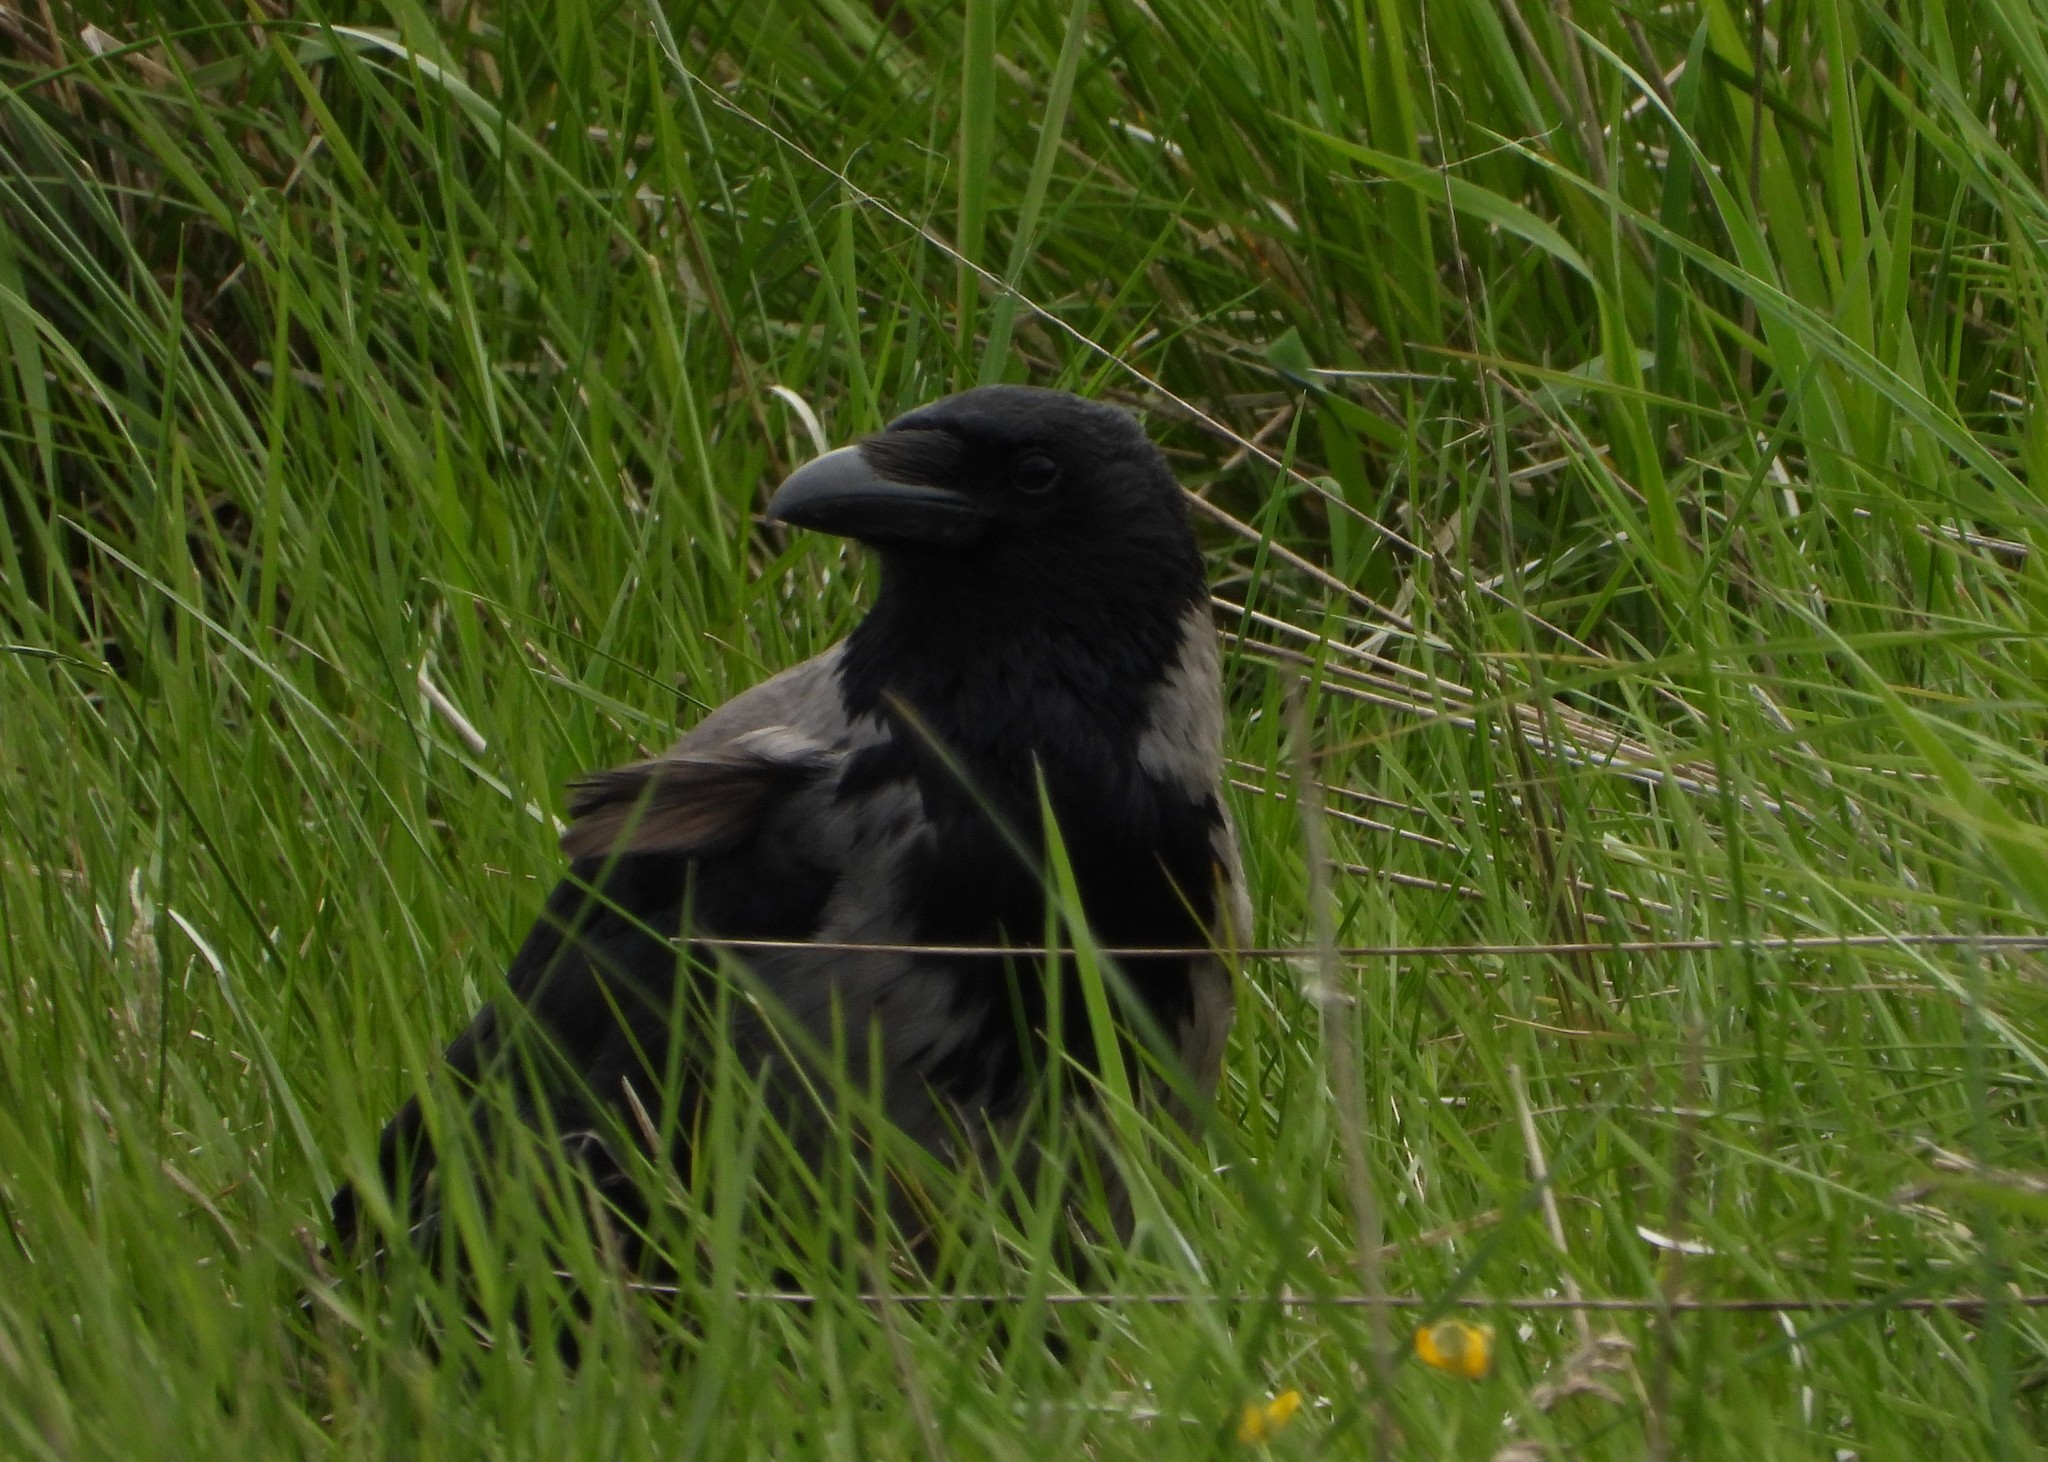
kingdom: Animalia
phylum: Chordata
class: Aves
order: Passeriformes
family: Corvidae
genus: Corvus
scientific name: Corvus cornix
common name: Hooded crow
